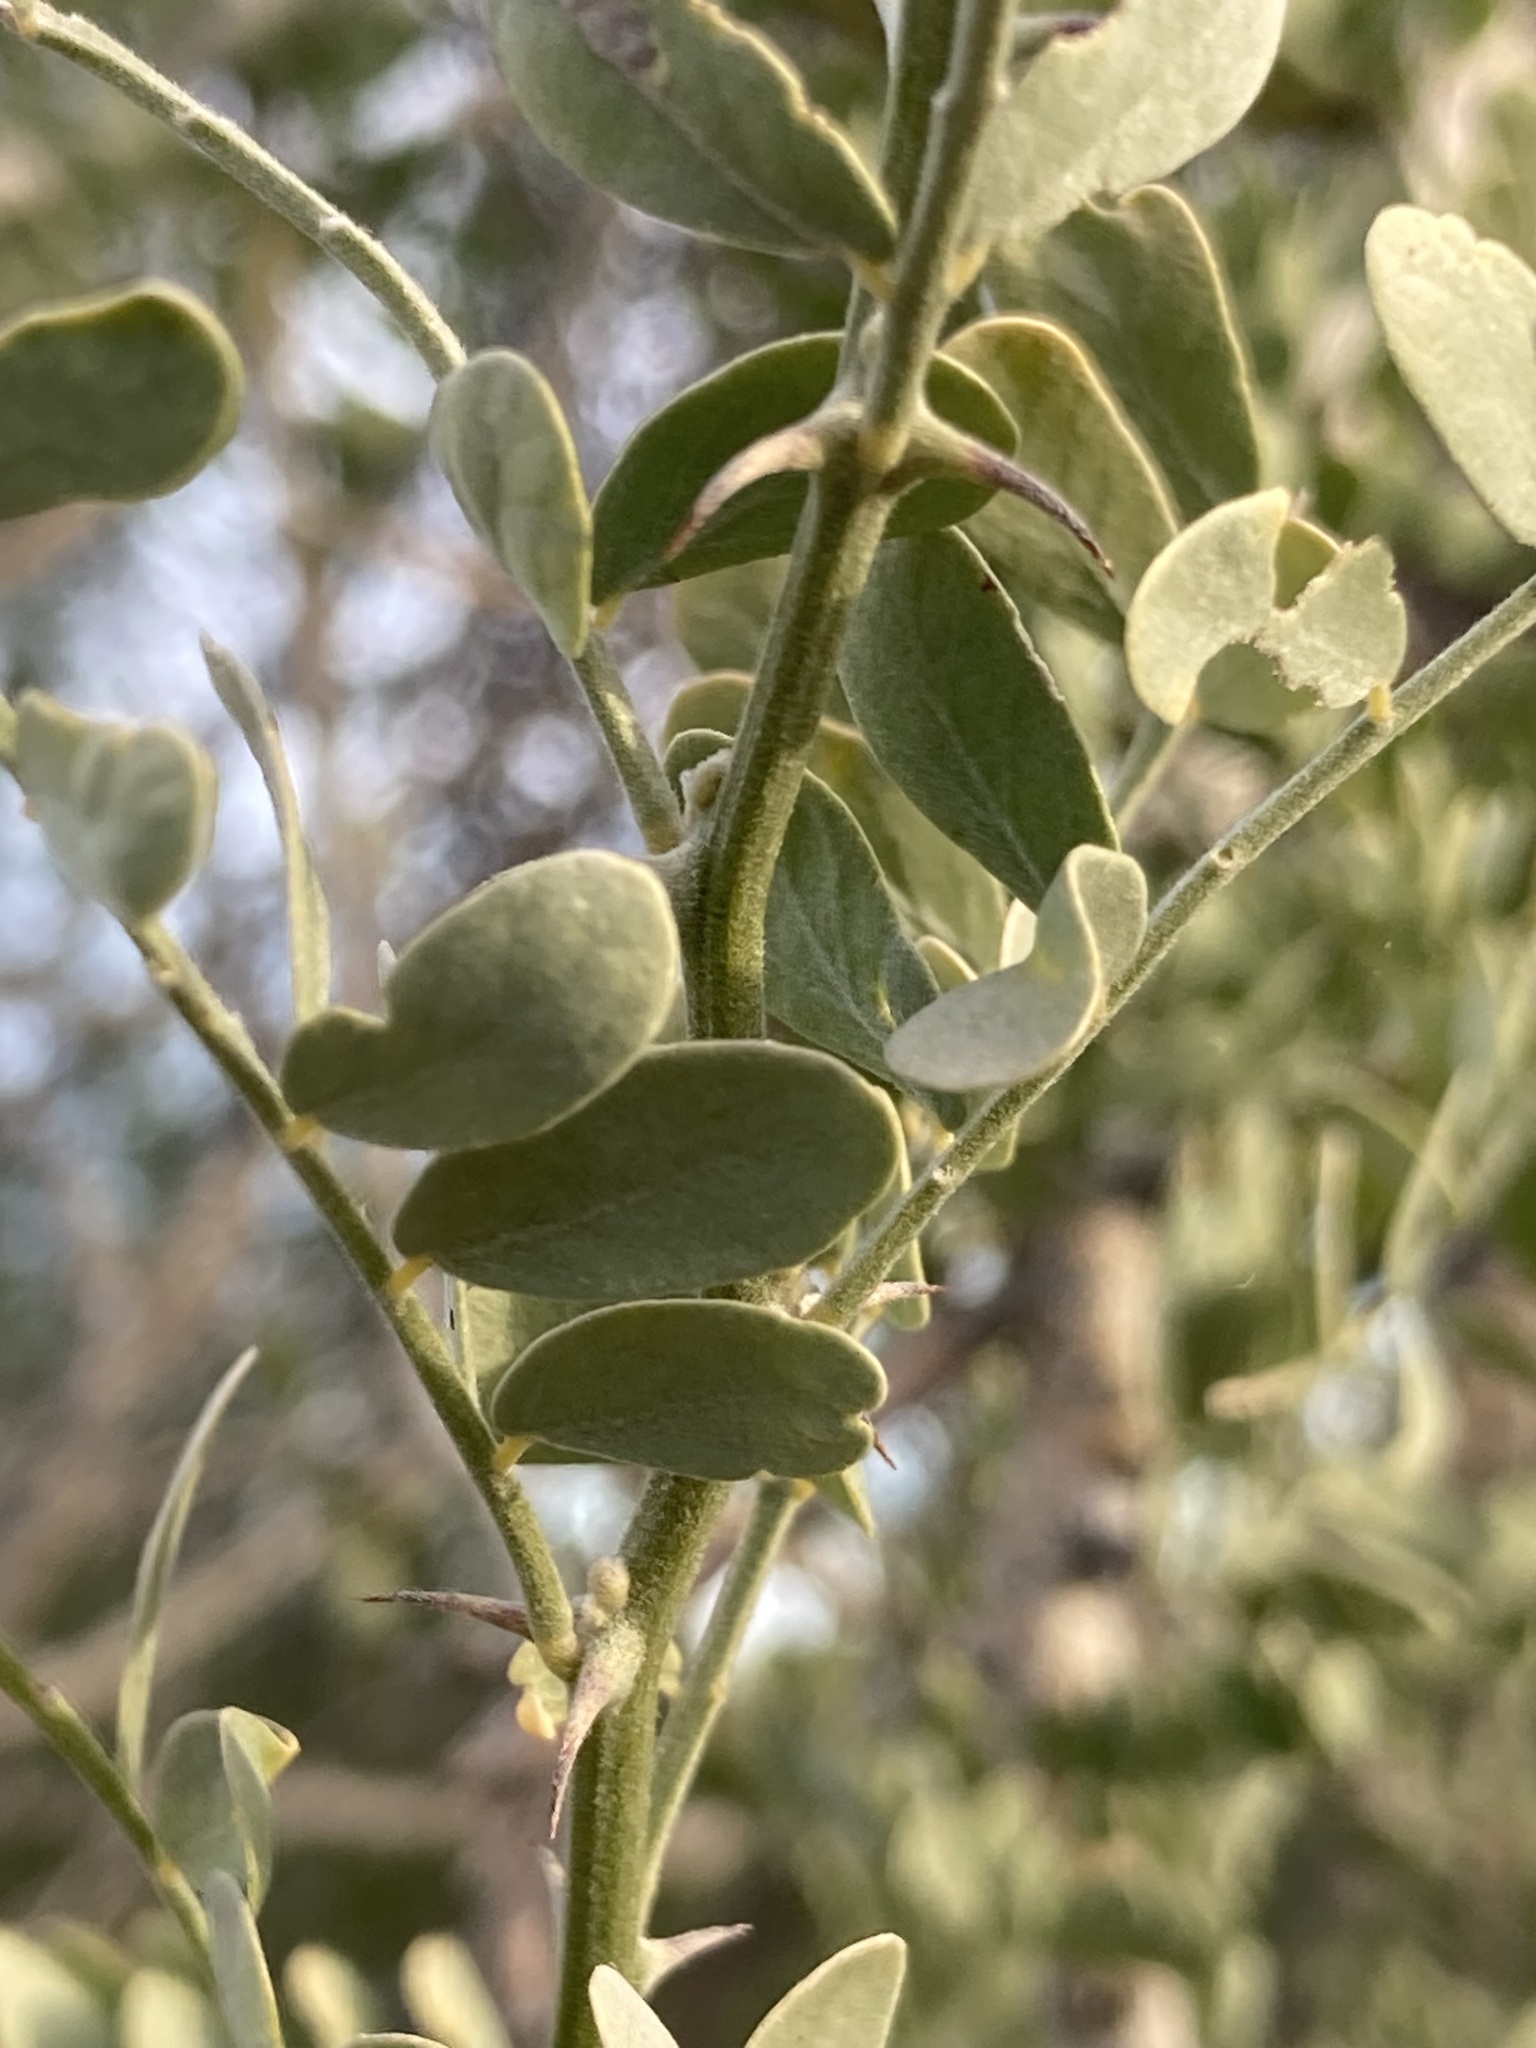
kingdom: Plantae
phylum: Tracheophyta
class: Magnoliopsida
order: Fabales
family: Fabaceae
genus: Olneya
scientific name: Olneya tesota
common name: Desert ironwood
